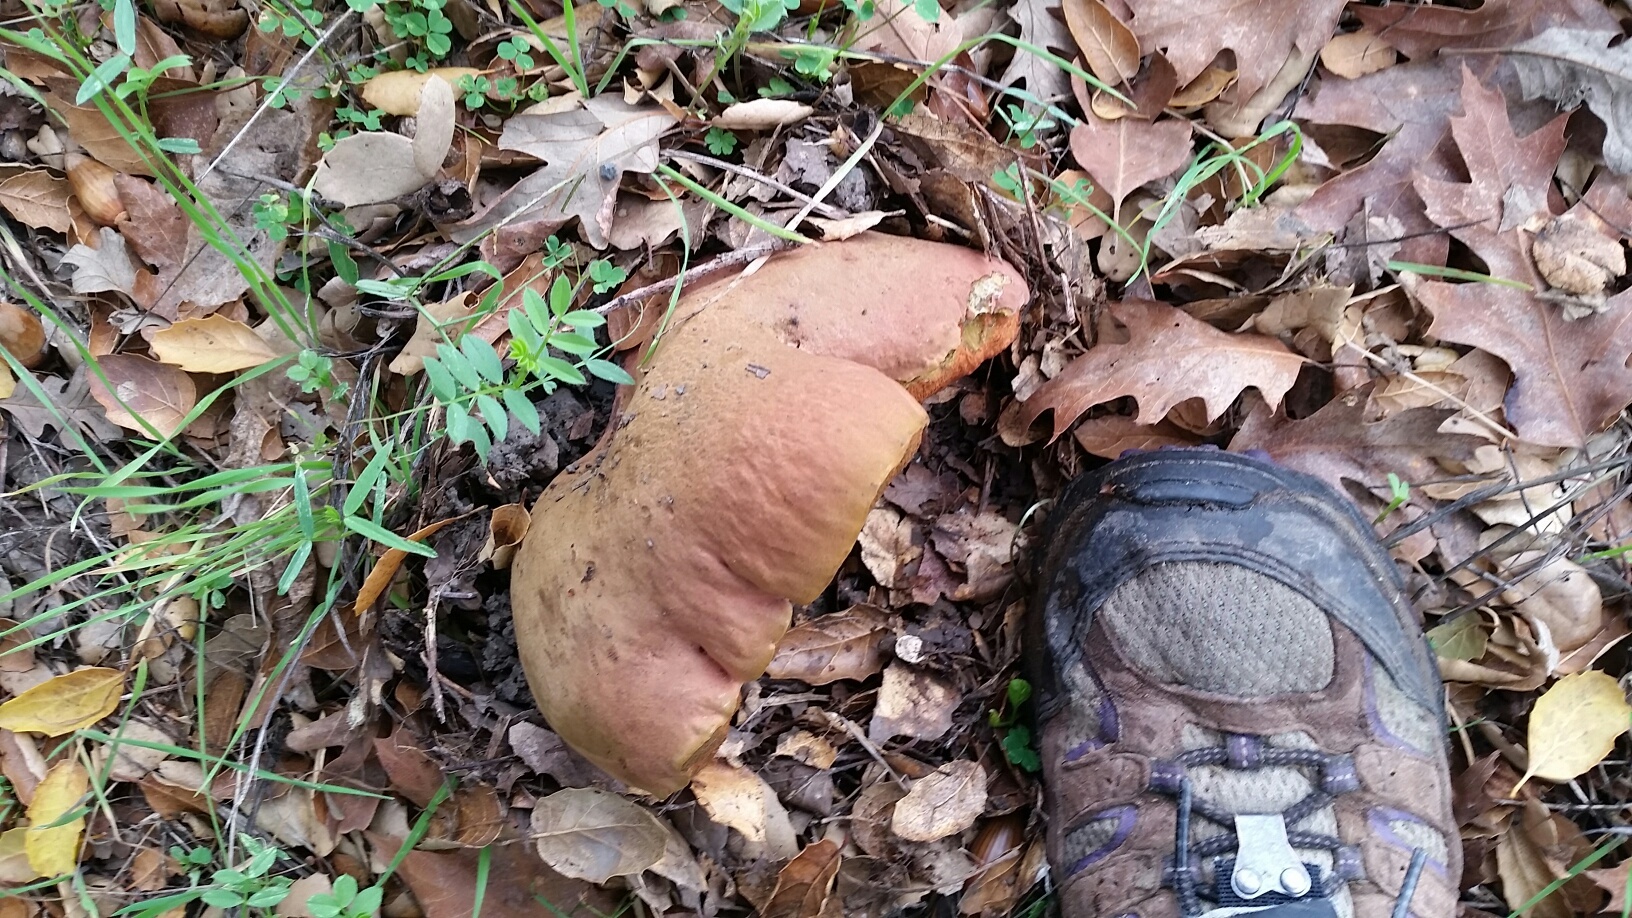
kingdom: Fungi
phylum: Basidiomycota
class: Agaricomycetes
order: Boletales
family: Boletaceae
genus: Suillellus
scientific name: Suillellus amygdalinus
